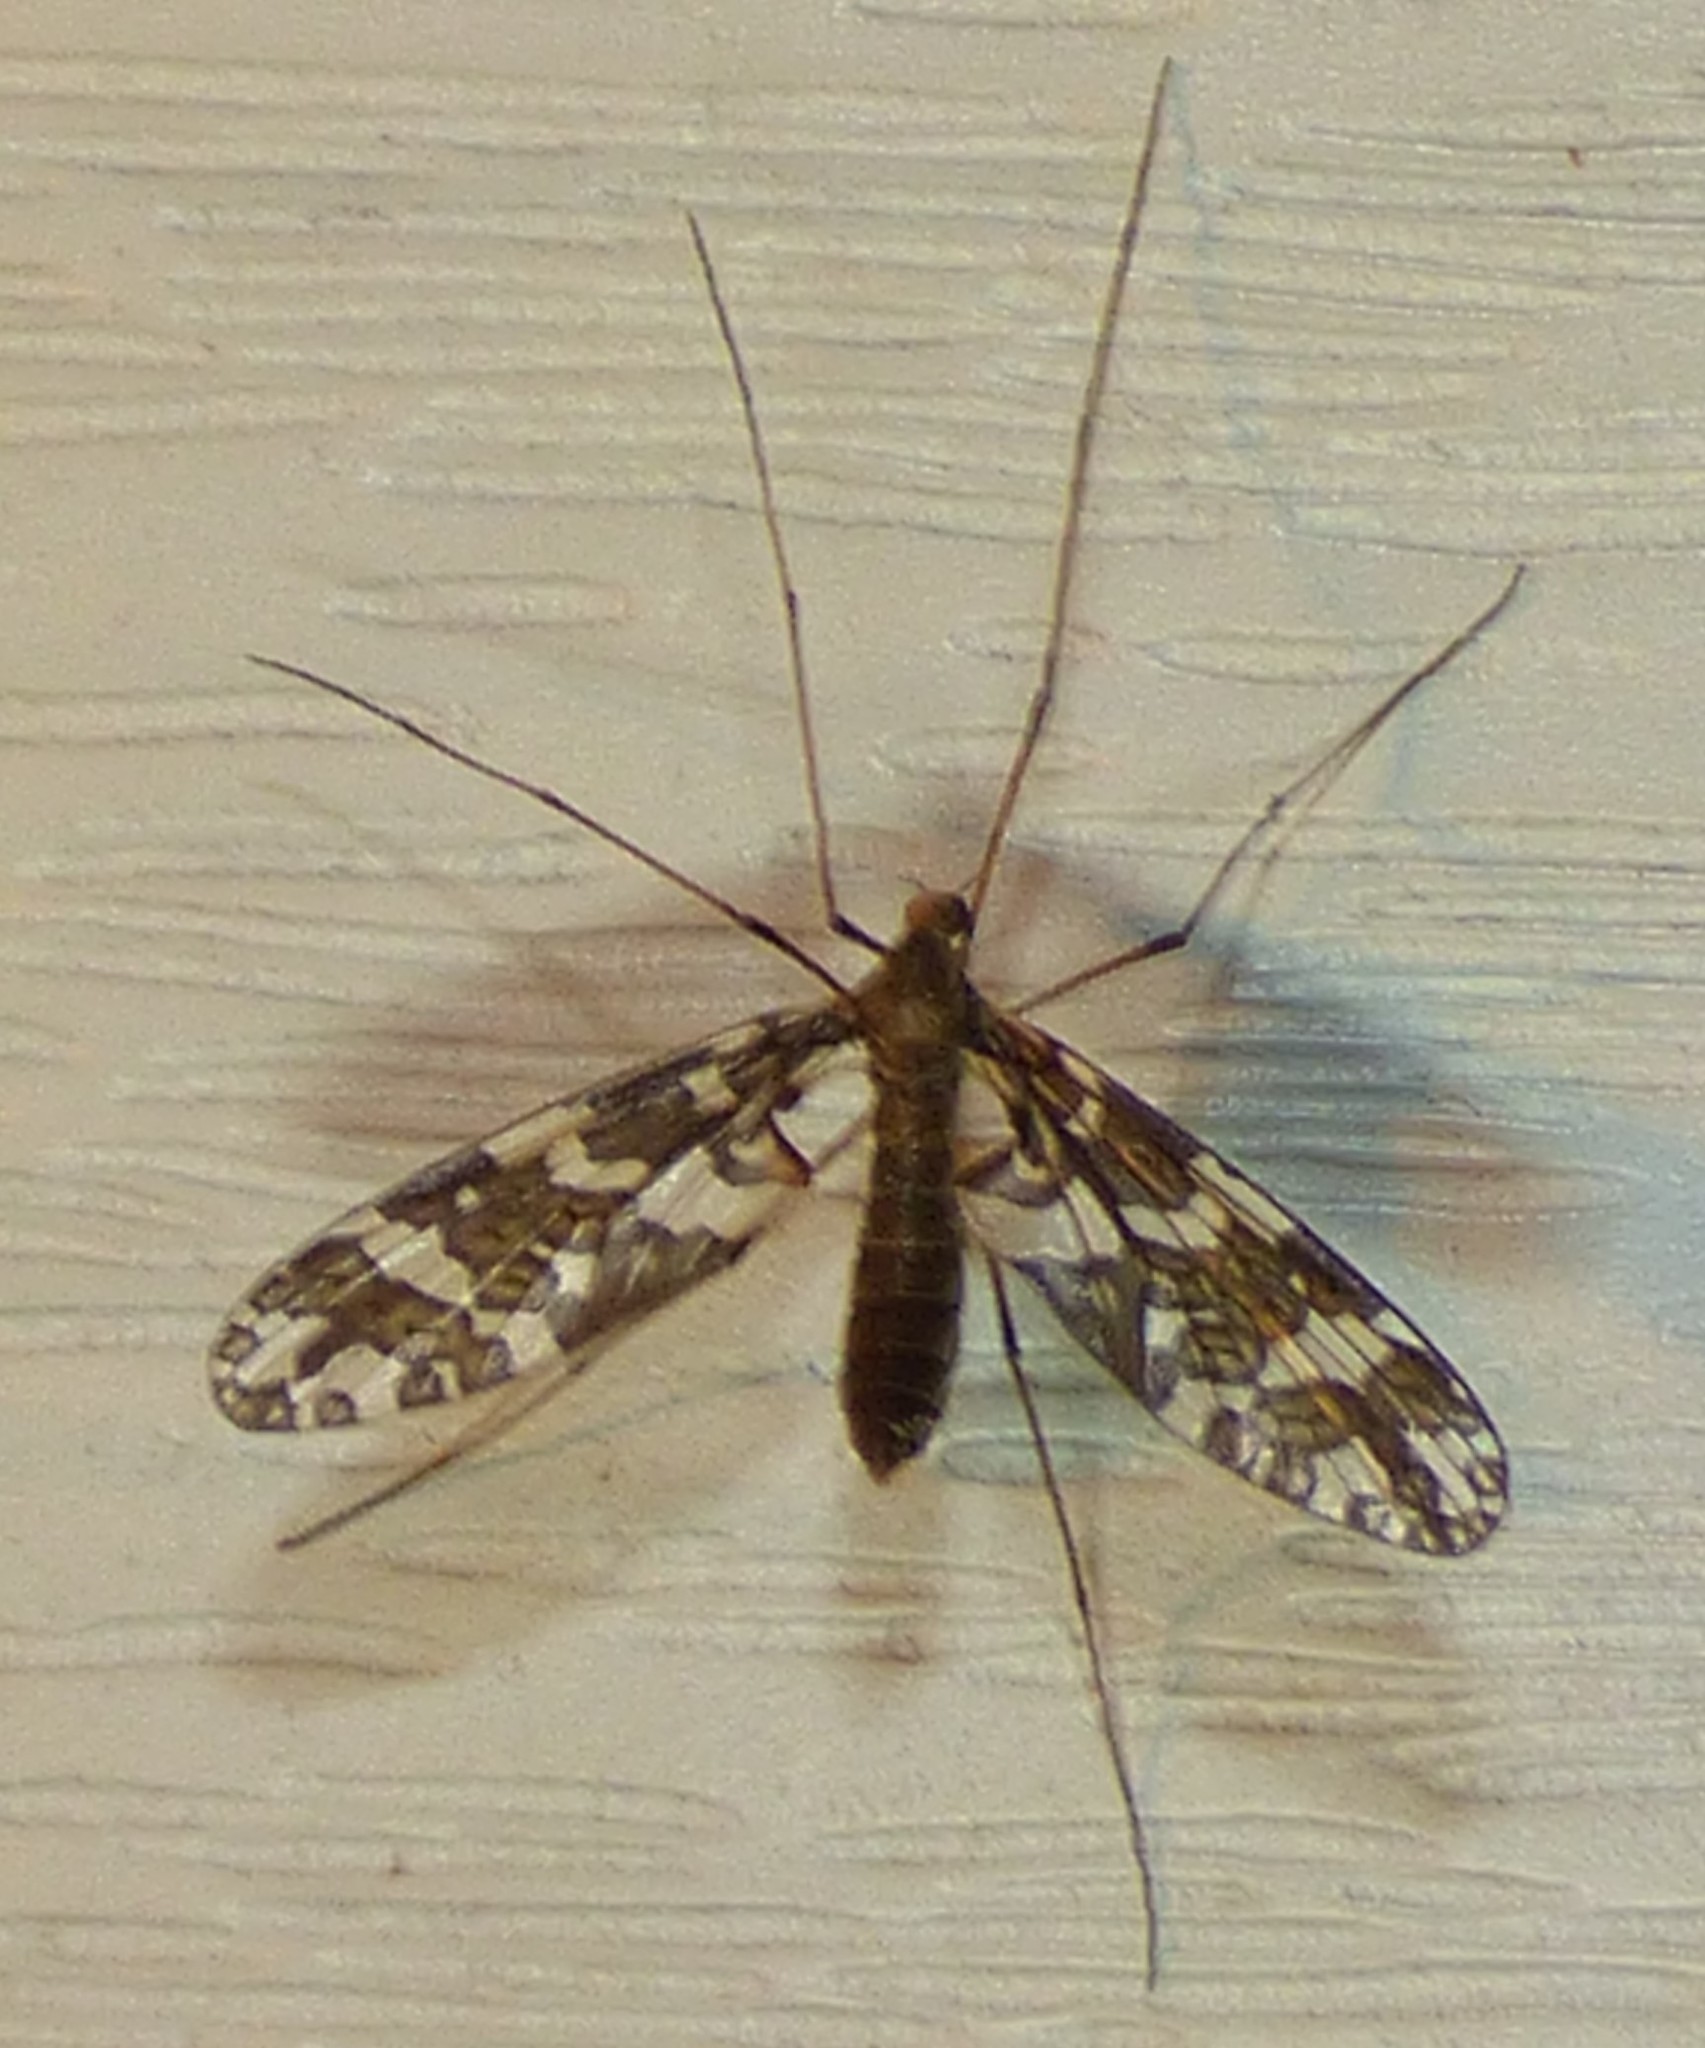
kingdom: Animalia
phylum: Arthropoda
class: Insecta
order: Diptera
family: Tanyderidae
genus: Protoplasa
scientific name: Protoplasa fitchii
